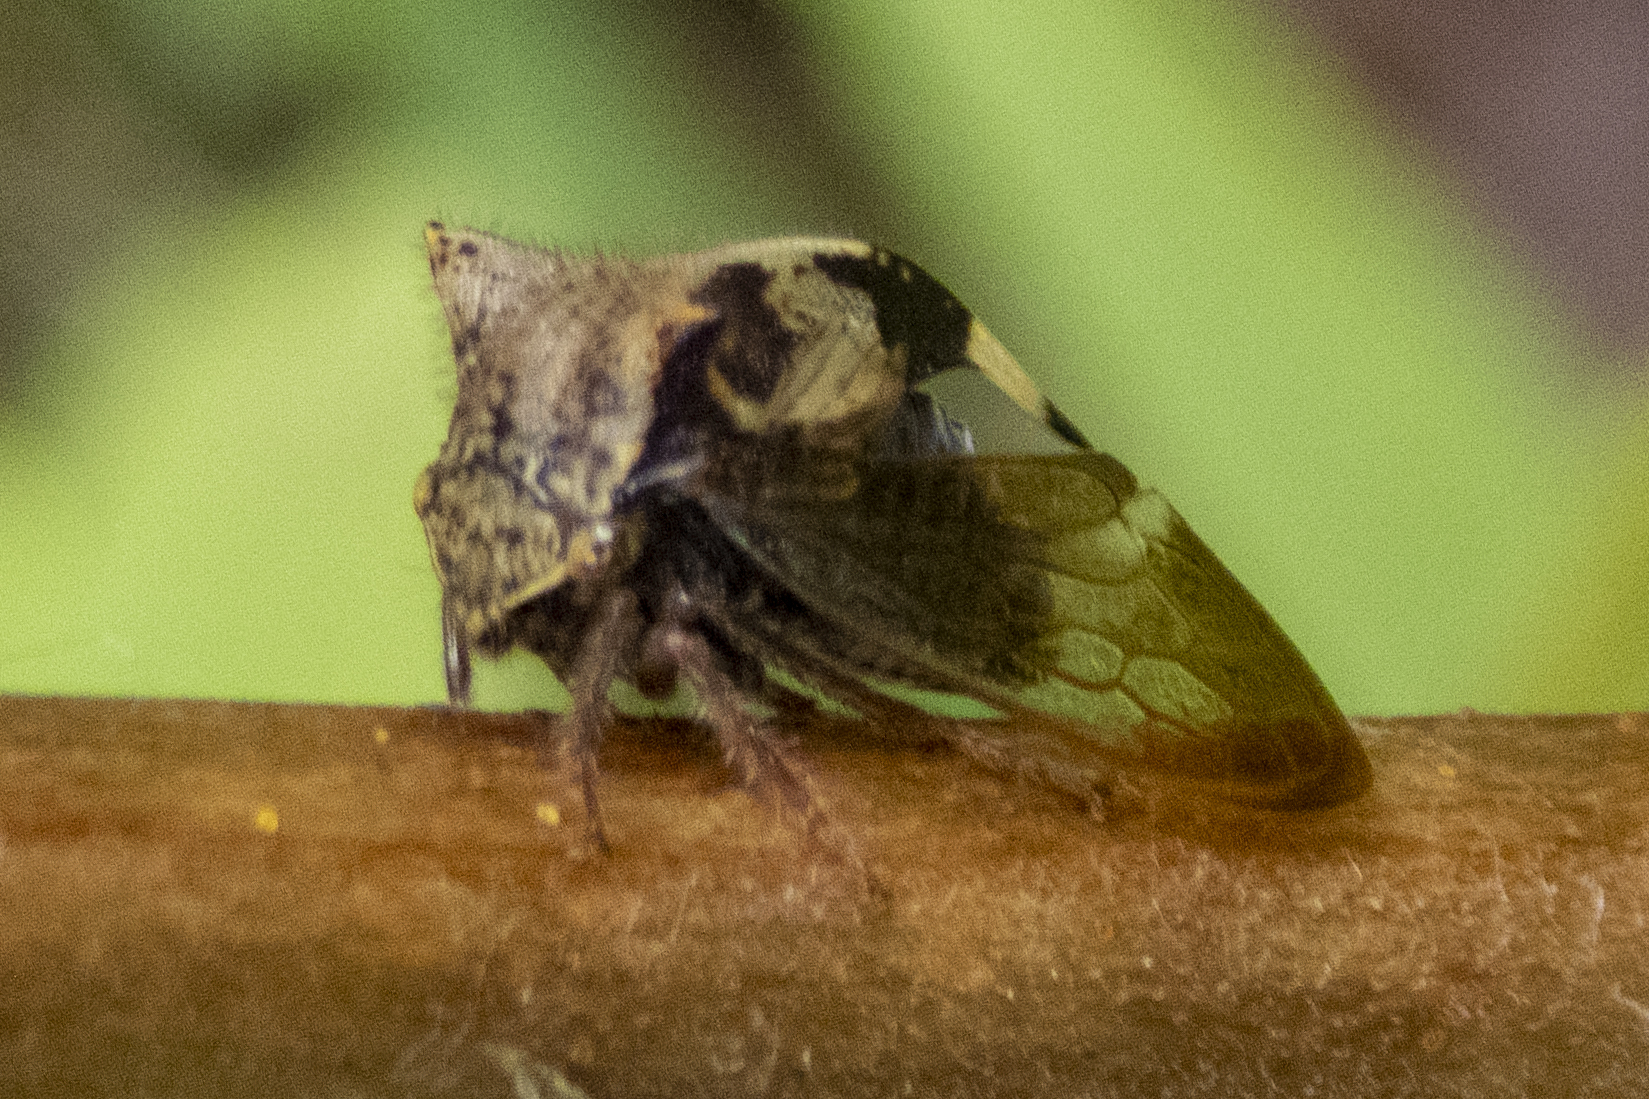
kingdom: Animalia
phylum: Arthropoda
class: Insecta
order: Hemiptera
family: Membracidae
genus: Stictocephala
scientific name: Stictocephala diceros
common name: Two-horned treehopper
